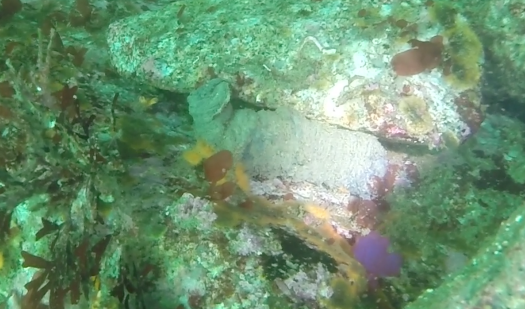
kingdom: Animalia
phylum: Cnidaria
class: Anthozoa
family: Cerianthidae
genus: Pachycerianthus
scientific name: Pachycerianthus fimbriatus
